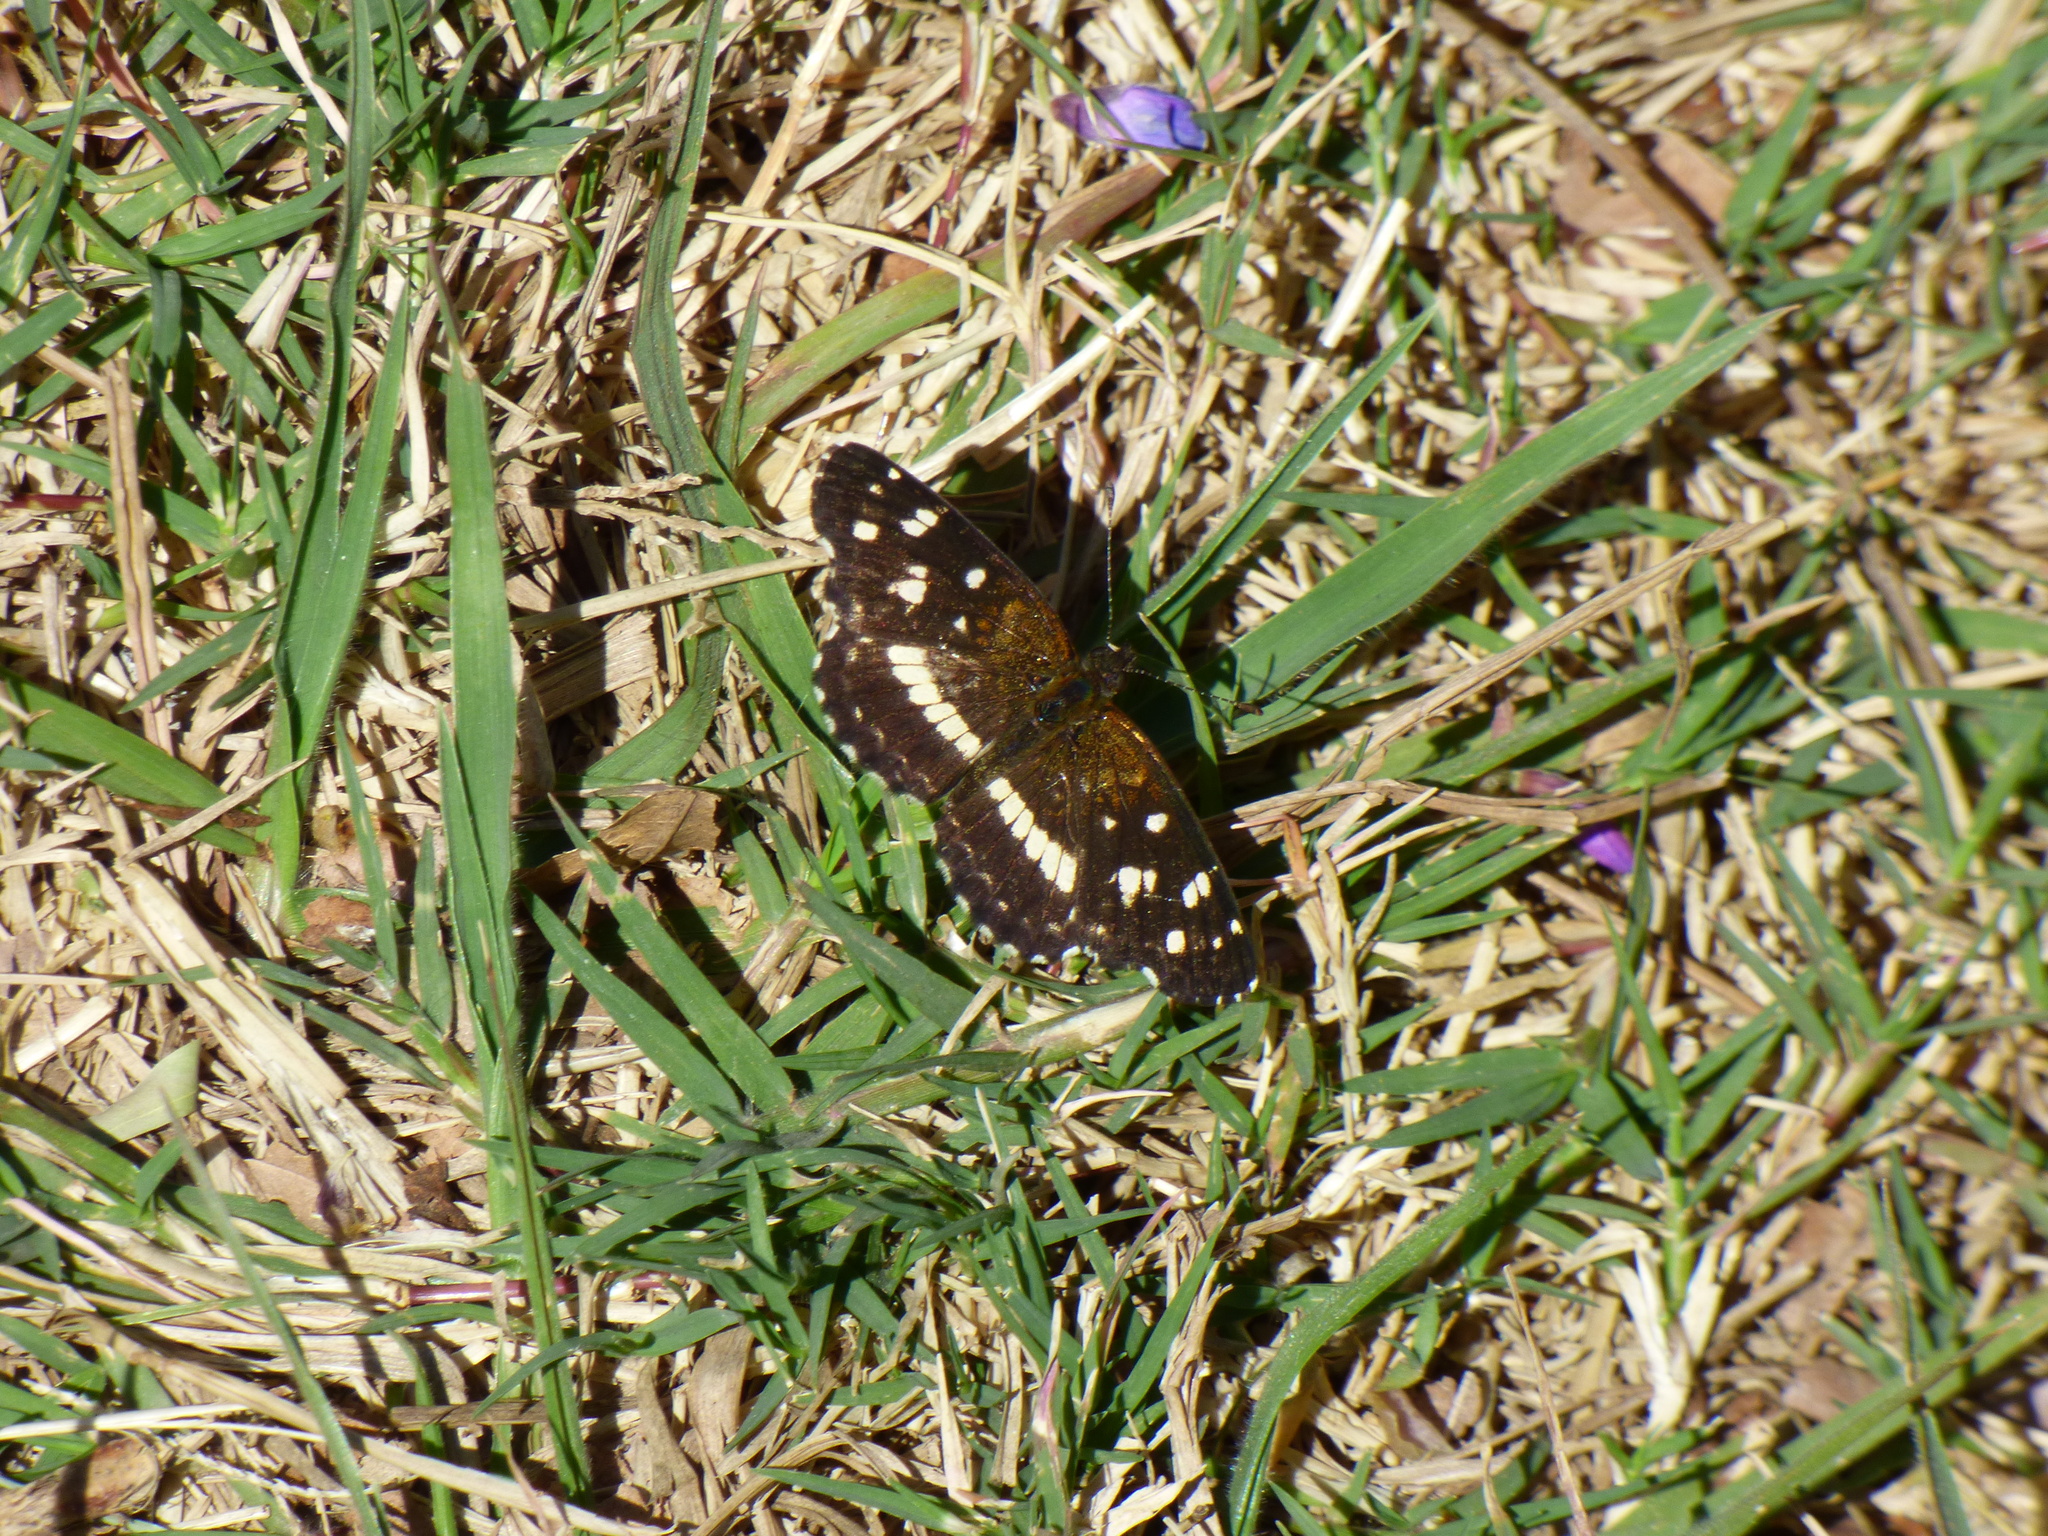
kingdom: Animalia
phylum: Arthropoda
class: Insecta
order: Lepidoptera
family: Nymphalidae
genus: Ortilia
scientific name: Ortilia ithra
